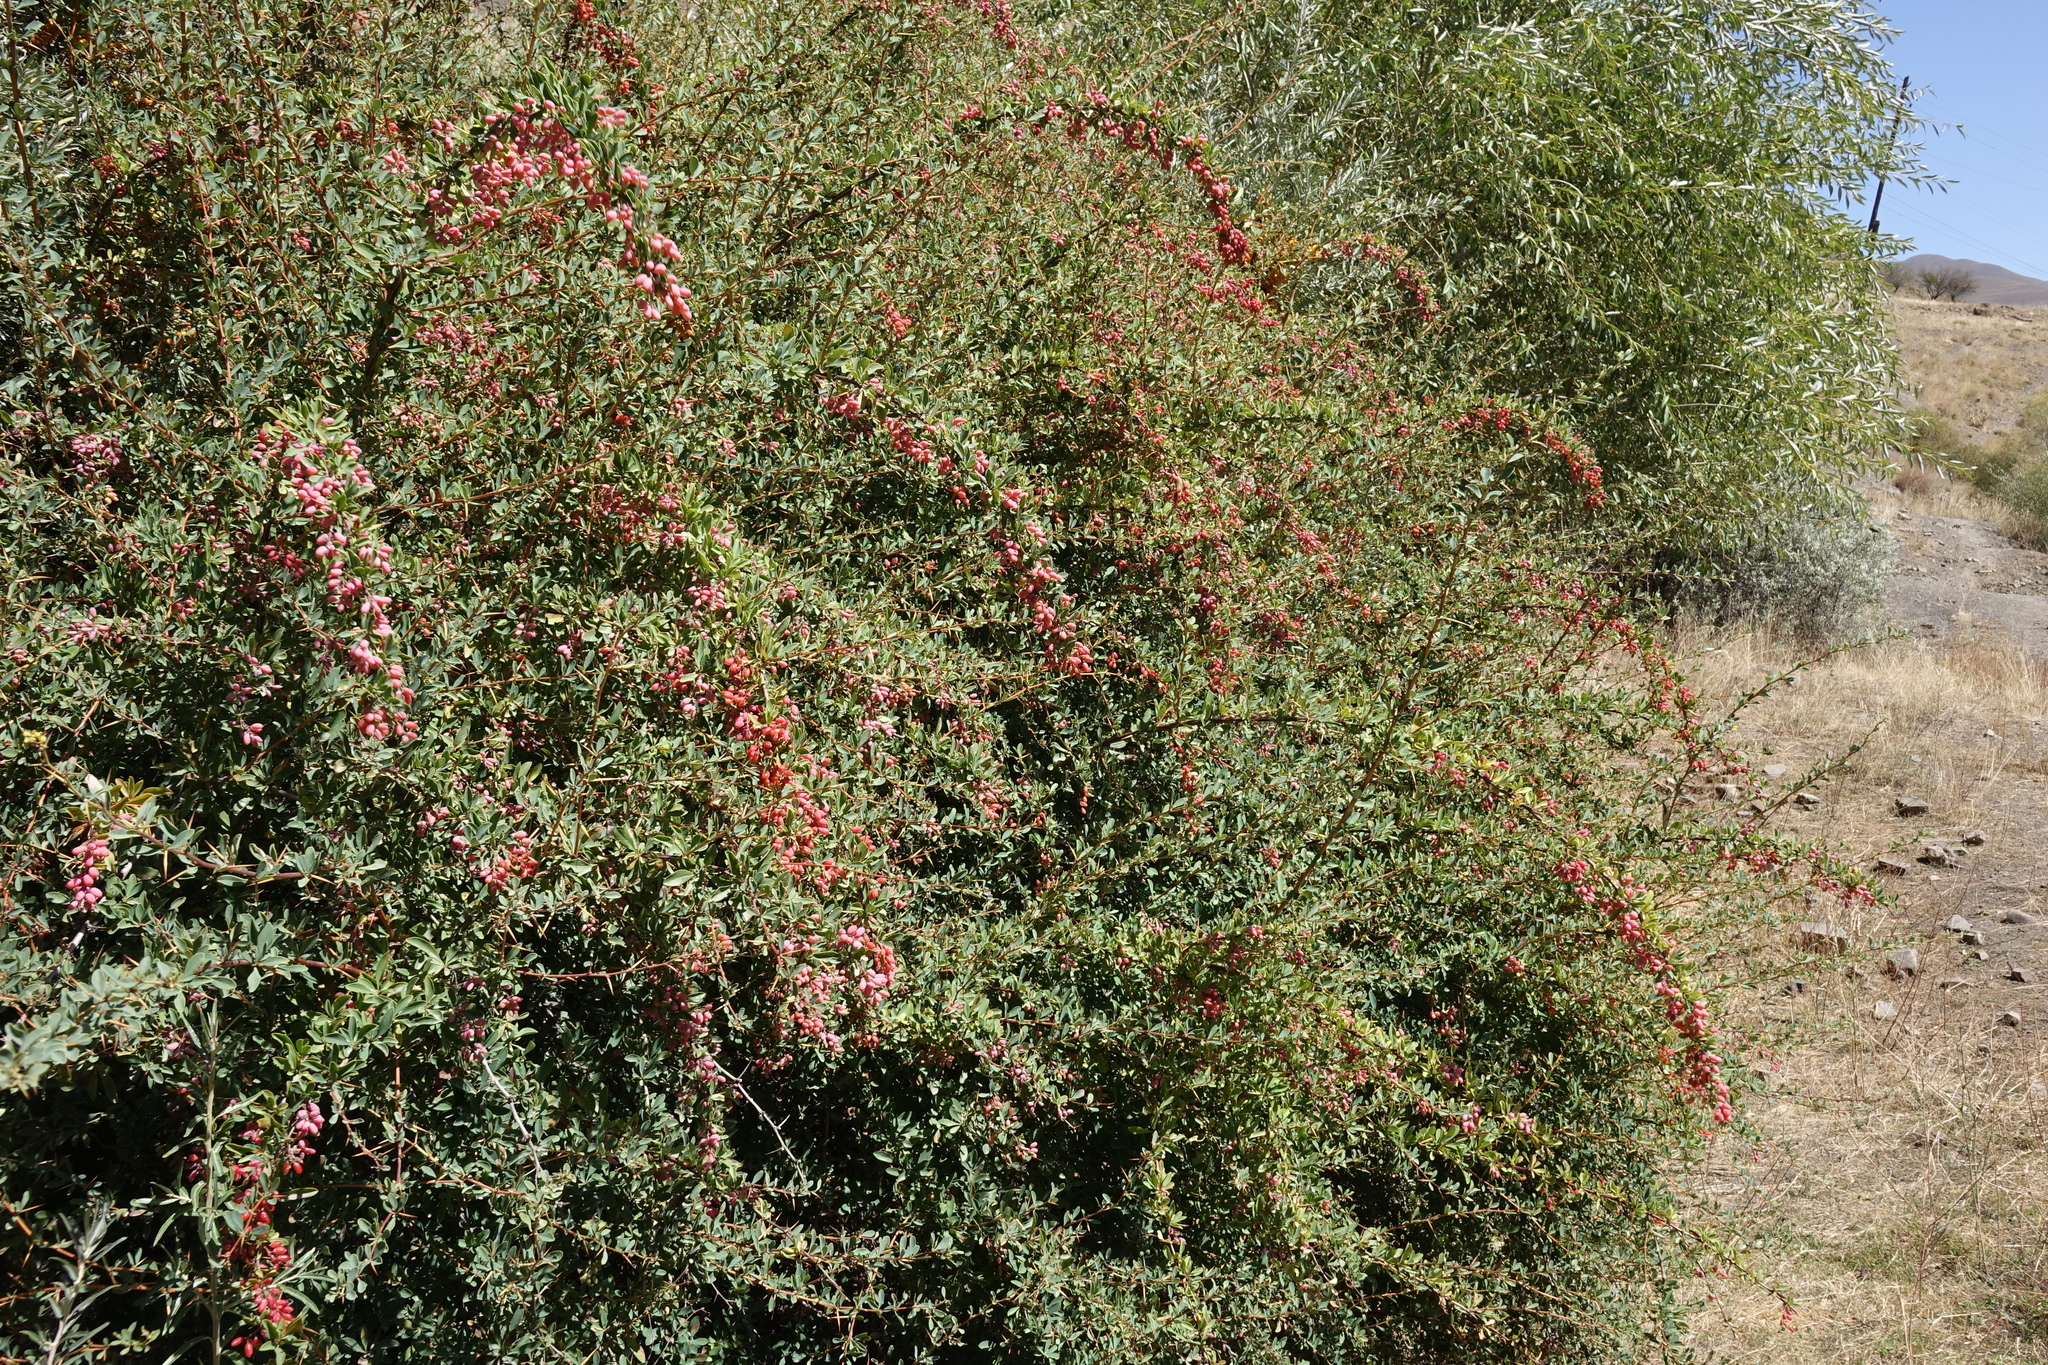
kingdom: Plantae
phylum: Tracheophyta
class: Magnoliopsida
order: Ranunculales
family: Berberidaceae
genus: Berberis
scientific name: Berberis vulgaris
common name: Barberry
